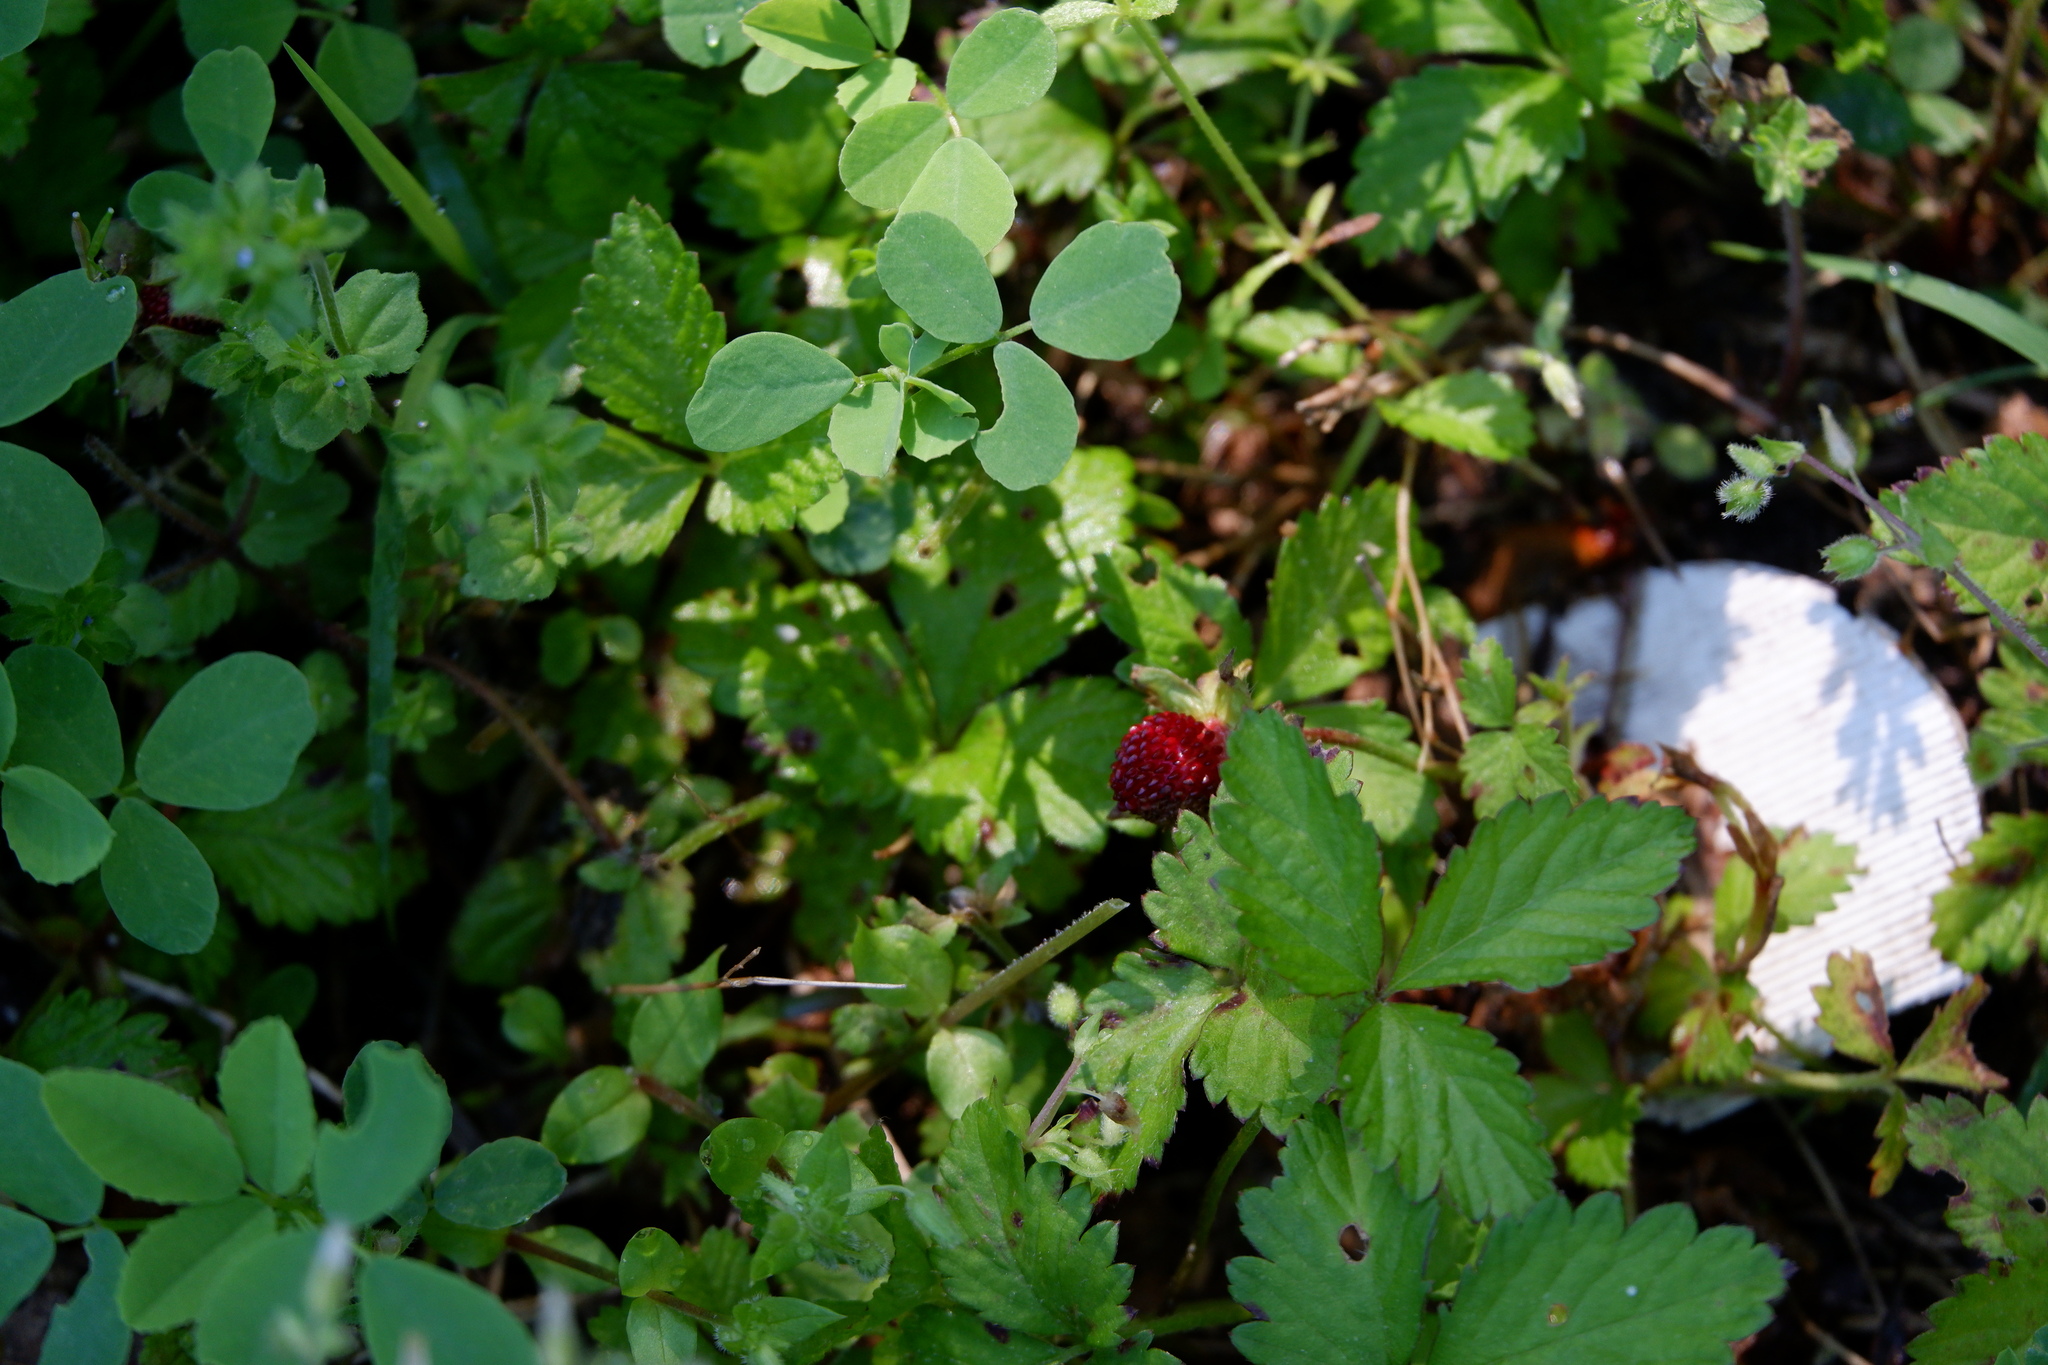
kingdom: Plantae
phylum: Tracheophyta
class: Magnoliopsida
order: Rosales
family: Rosaceae
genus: Potentilla
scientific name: Potentilla indica
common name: Yellow-flowered strawberry
